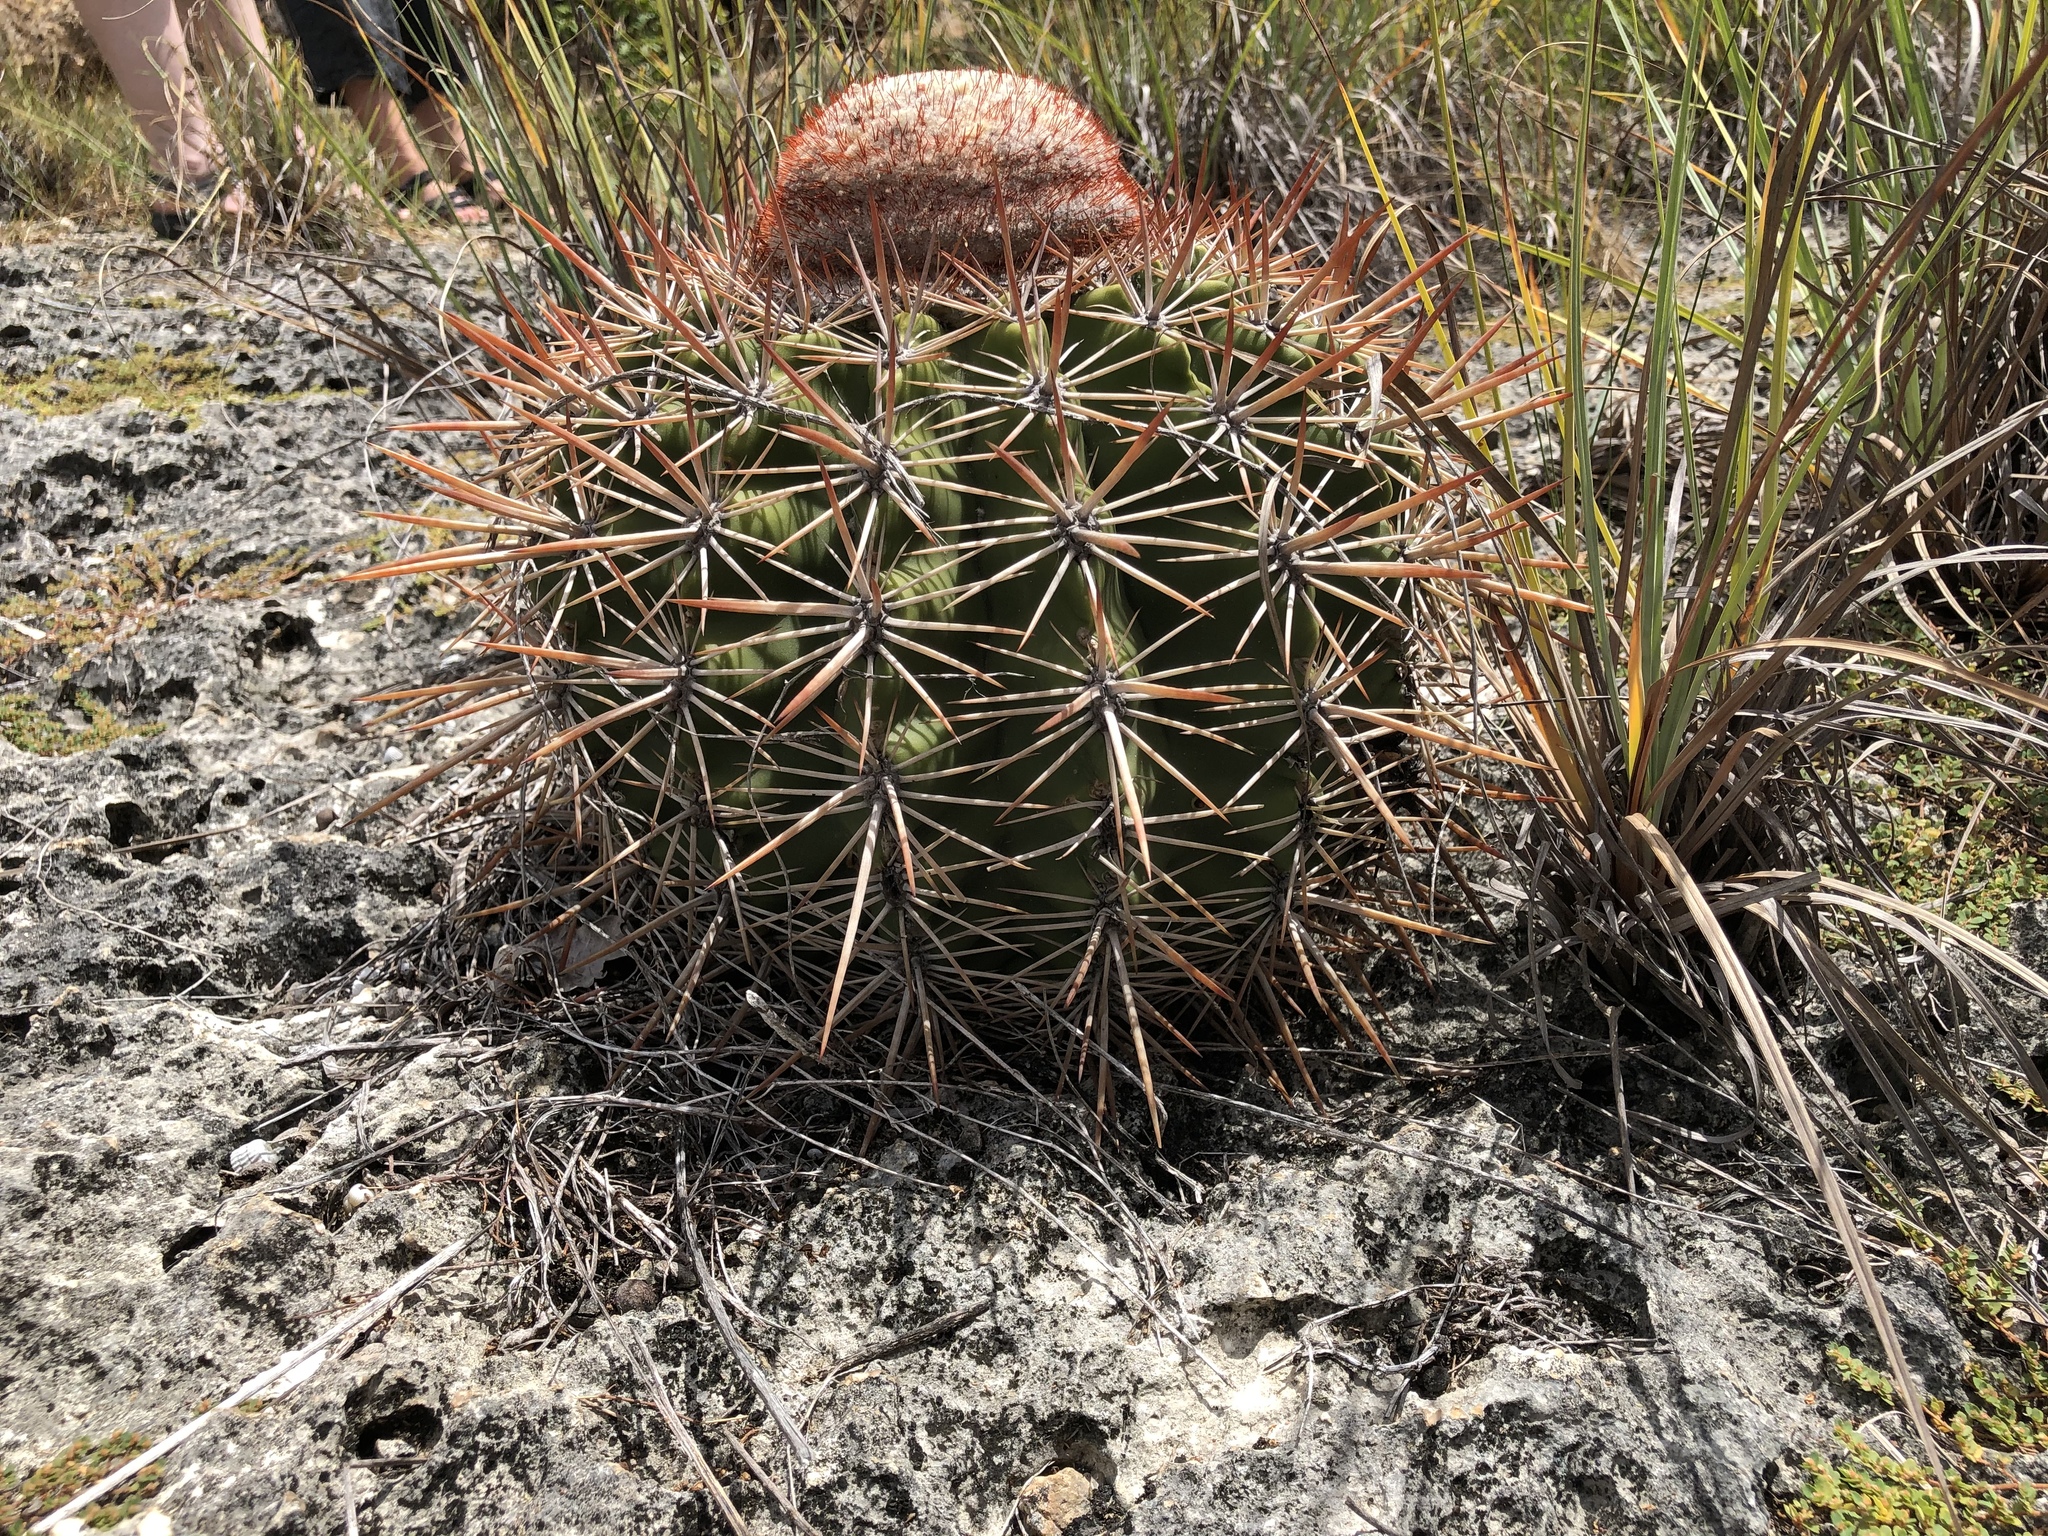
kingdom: Plantae
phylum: Tracheophyta
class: Magnoliopsida
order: Caryophyllales
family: Cactaceae
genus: Melocactus
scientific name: Melocactus macracanthos
